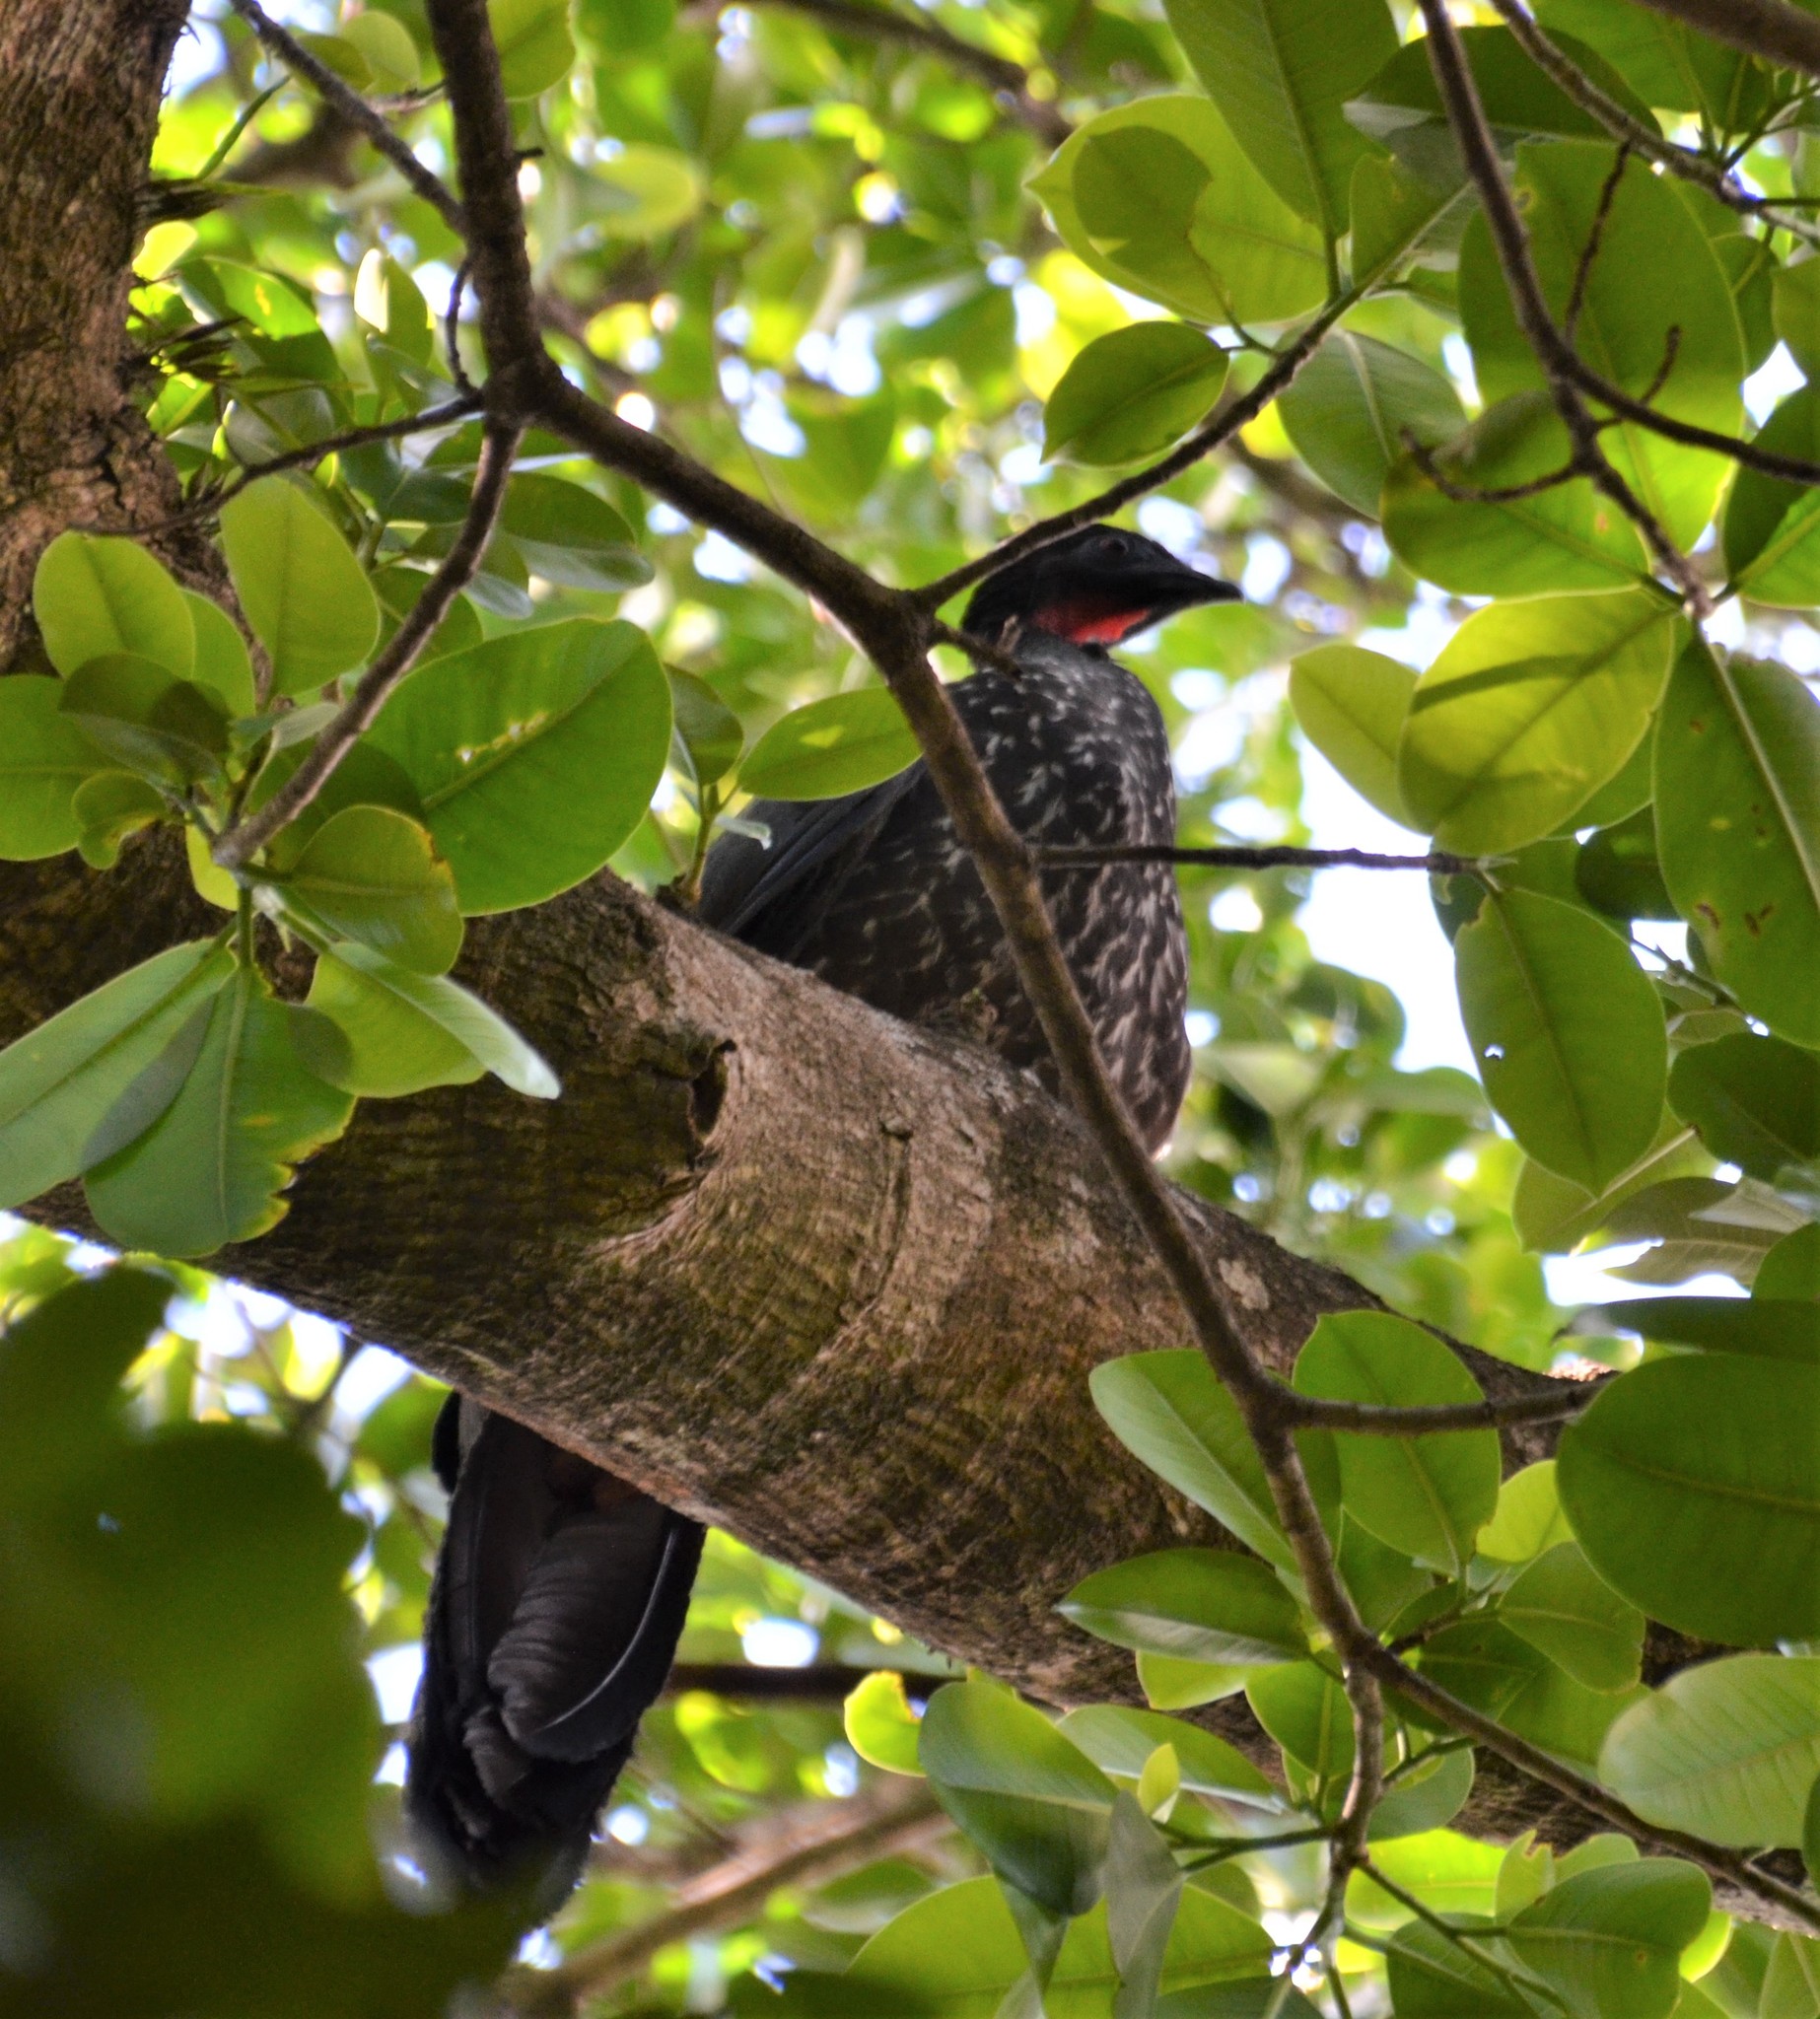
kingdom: Animalia
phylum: Chordata
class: Aves
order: Galliformes
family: Cracidae
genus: Penelope
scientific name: Penelope purpurascens
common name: Crested guan
